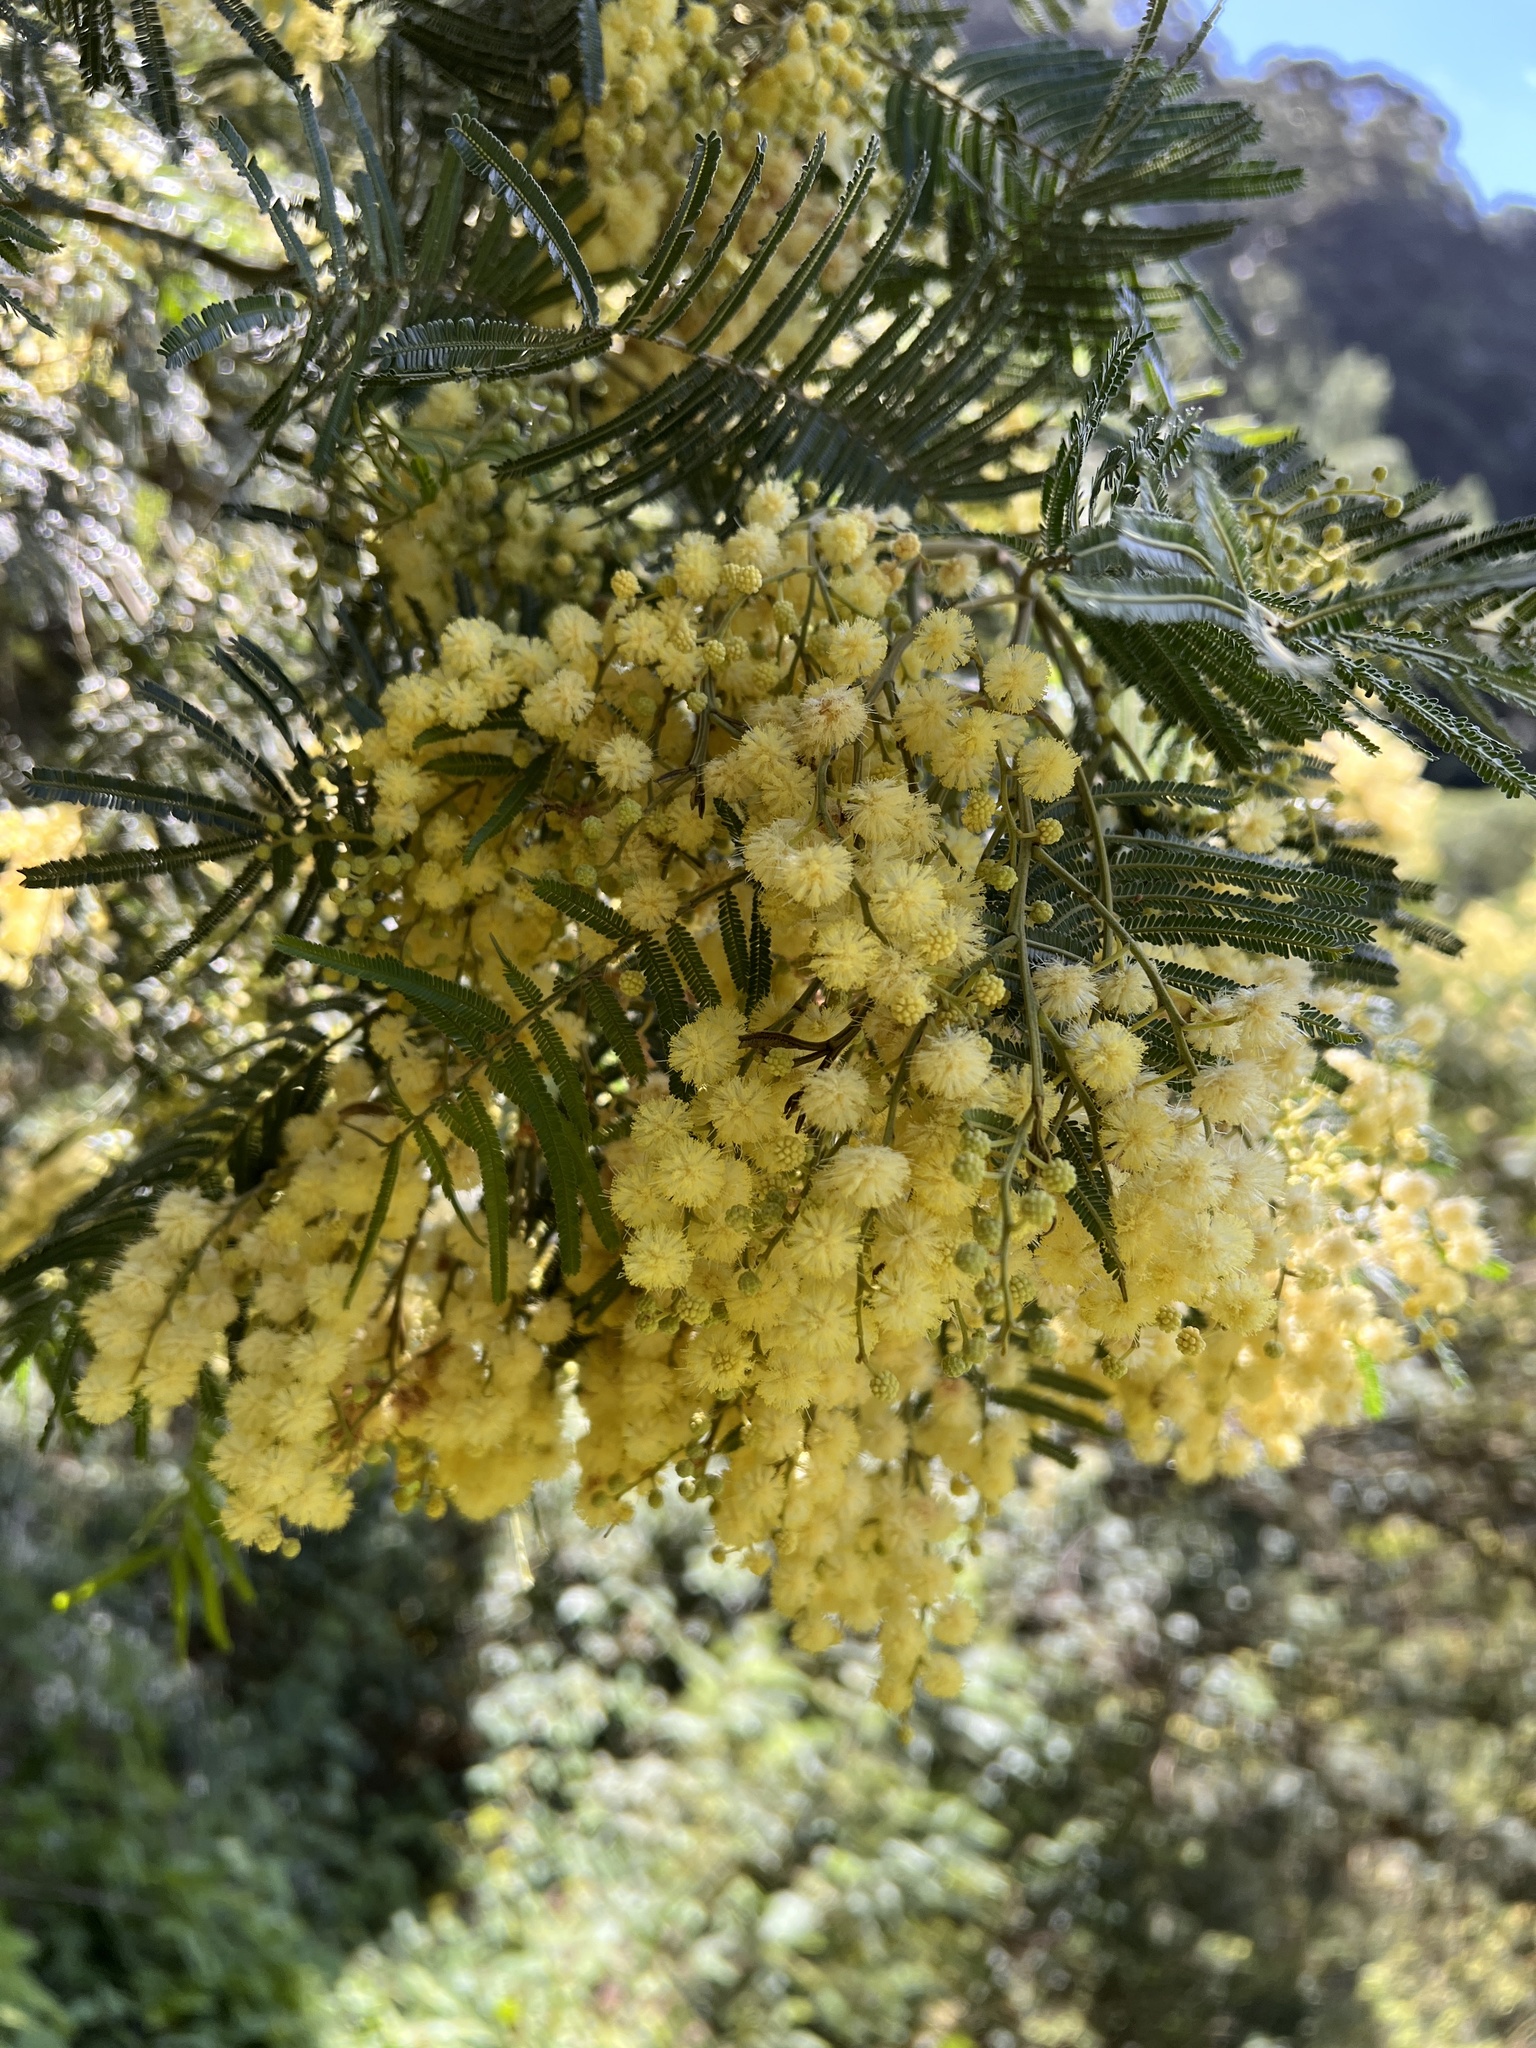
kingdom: Plantae
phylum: Tracheophyta
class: Magnoliopsida
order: Fabales
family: Fabaceae
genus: Acacia
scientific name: Acacia mearnsii
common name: Black wattle
